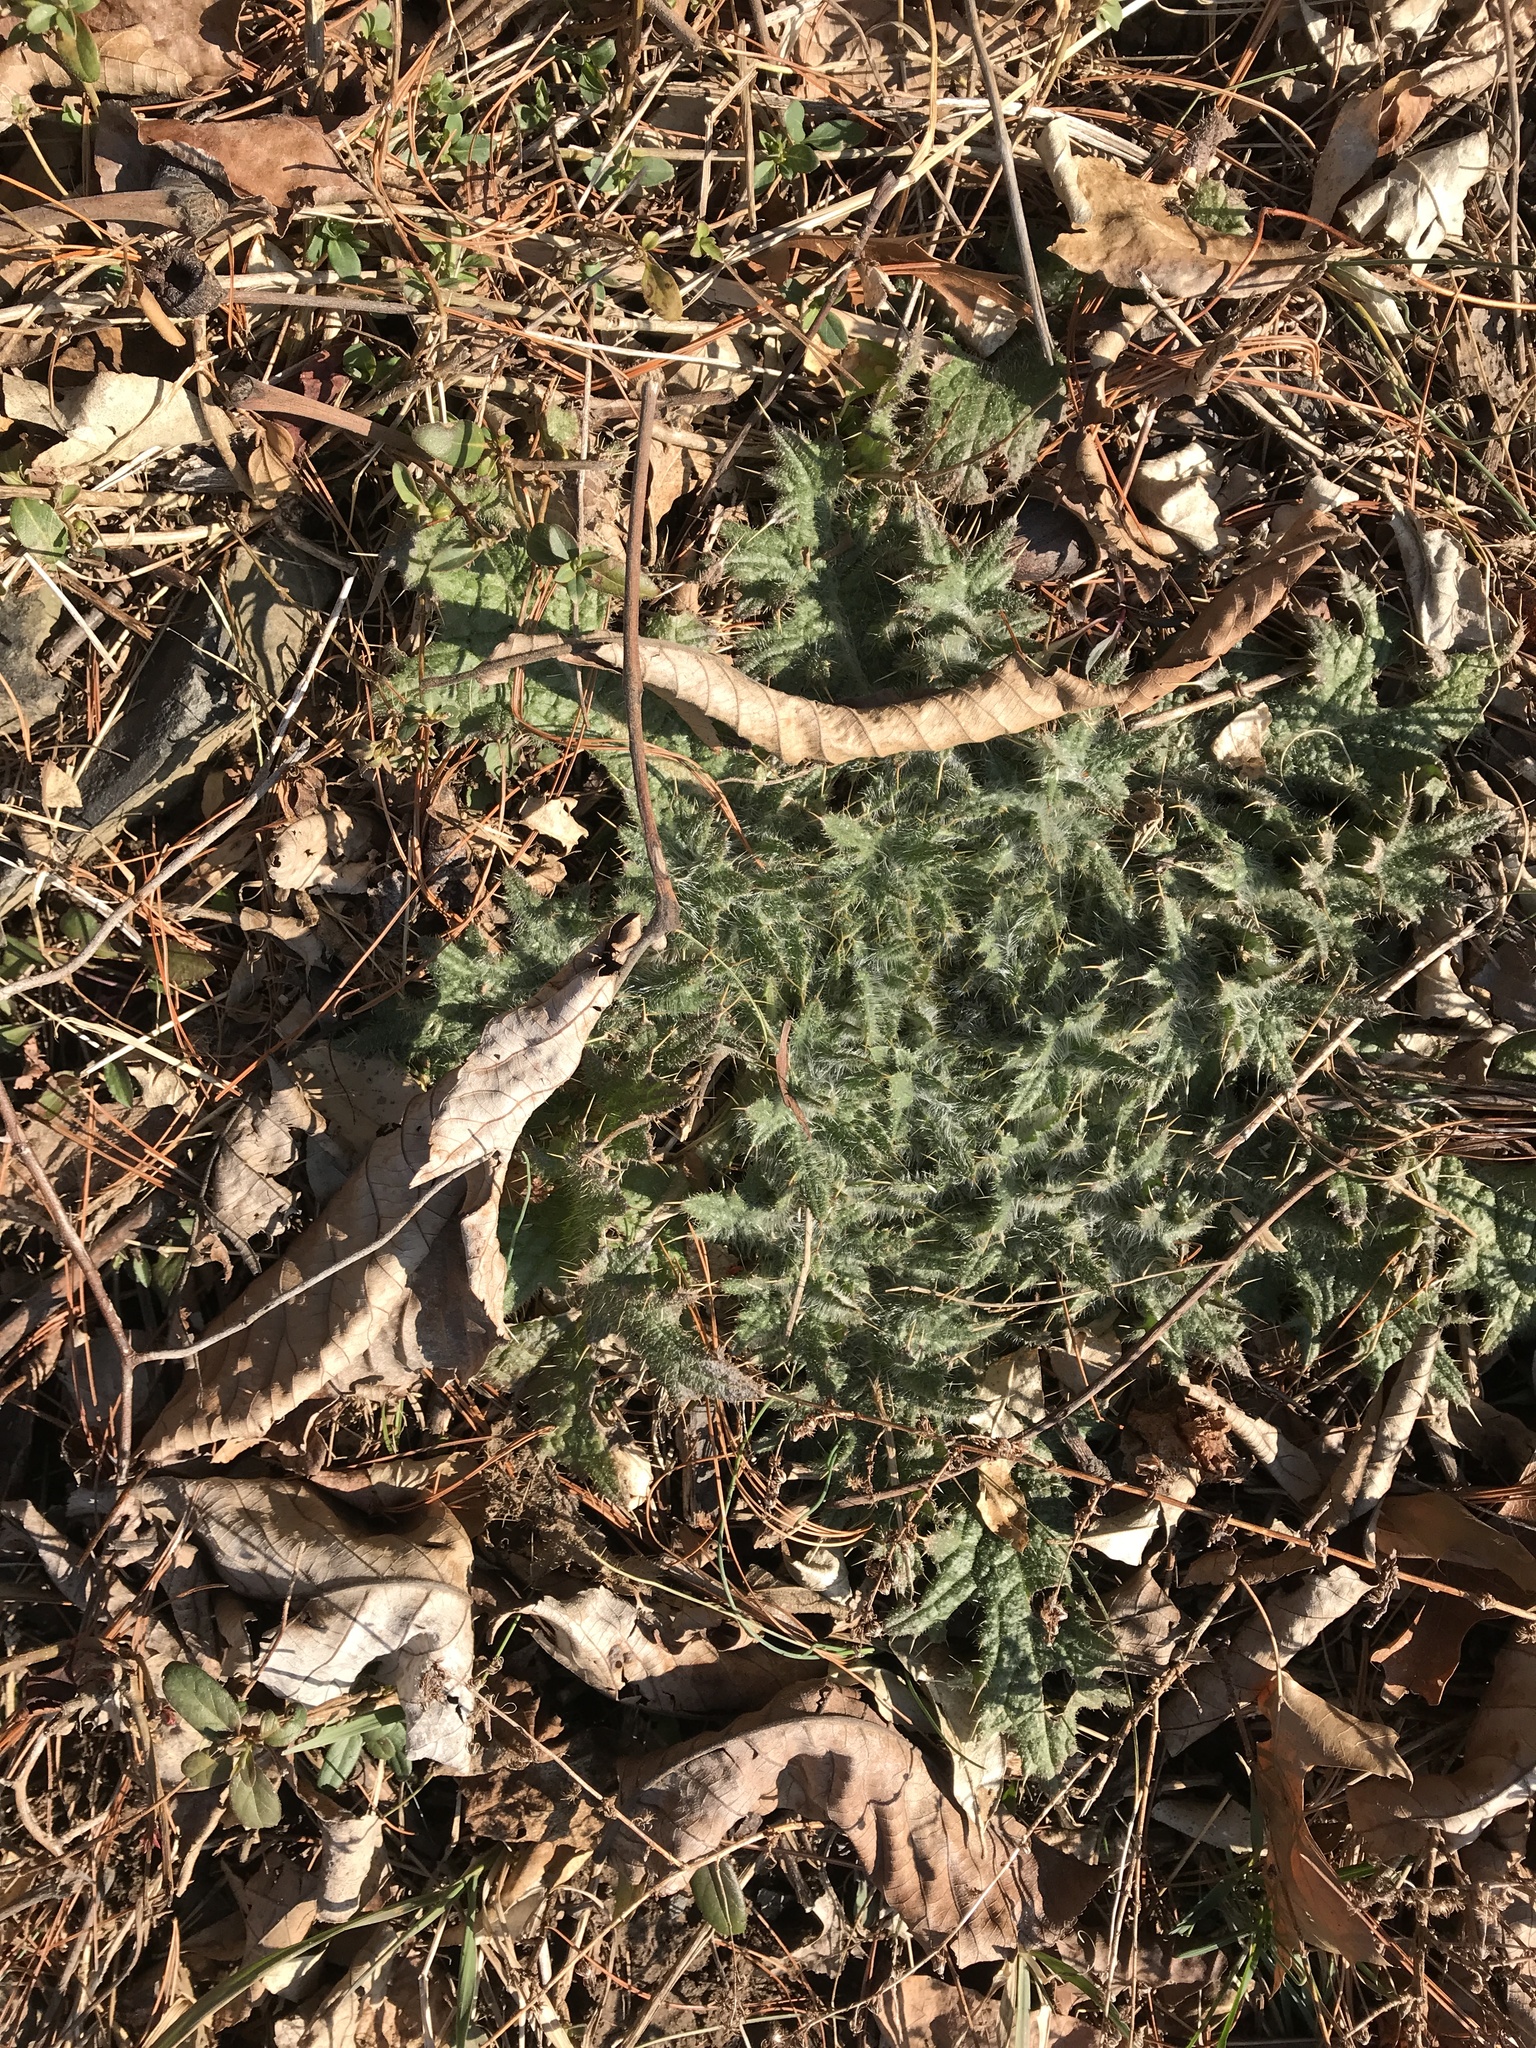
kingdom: Plantae
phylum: Tracheophyta
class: Magnoliopsida
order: Asterales
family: Asteraceae
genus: Cirsium
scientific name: Cirsium vulgare
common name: Bull thistle
